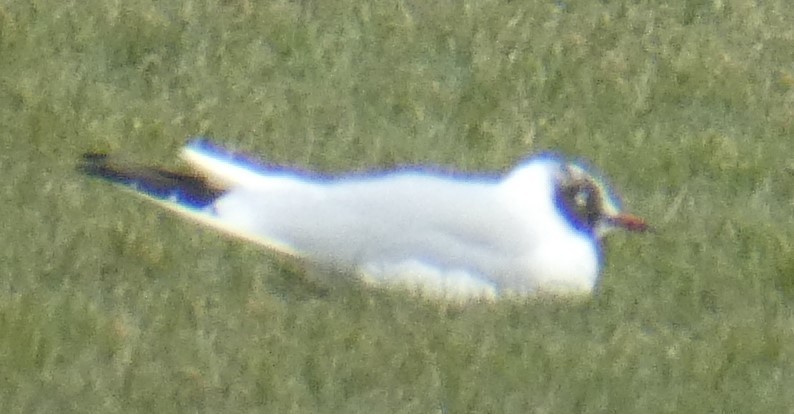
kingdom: Animalia
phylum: Chordata
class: Aves
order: Charadriiformes
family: Laridae
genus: Chroicocephalus
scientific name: Chroicocephalus ridibundus
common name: Black-headed gull
